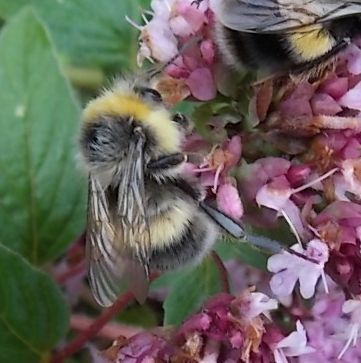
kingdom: Animalia
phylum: Arthropoda
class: Insecta
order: Hymenoptera
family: Apidae
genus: Bombus
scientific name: Bombus lucorum
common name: White-tailed bumblebee
